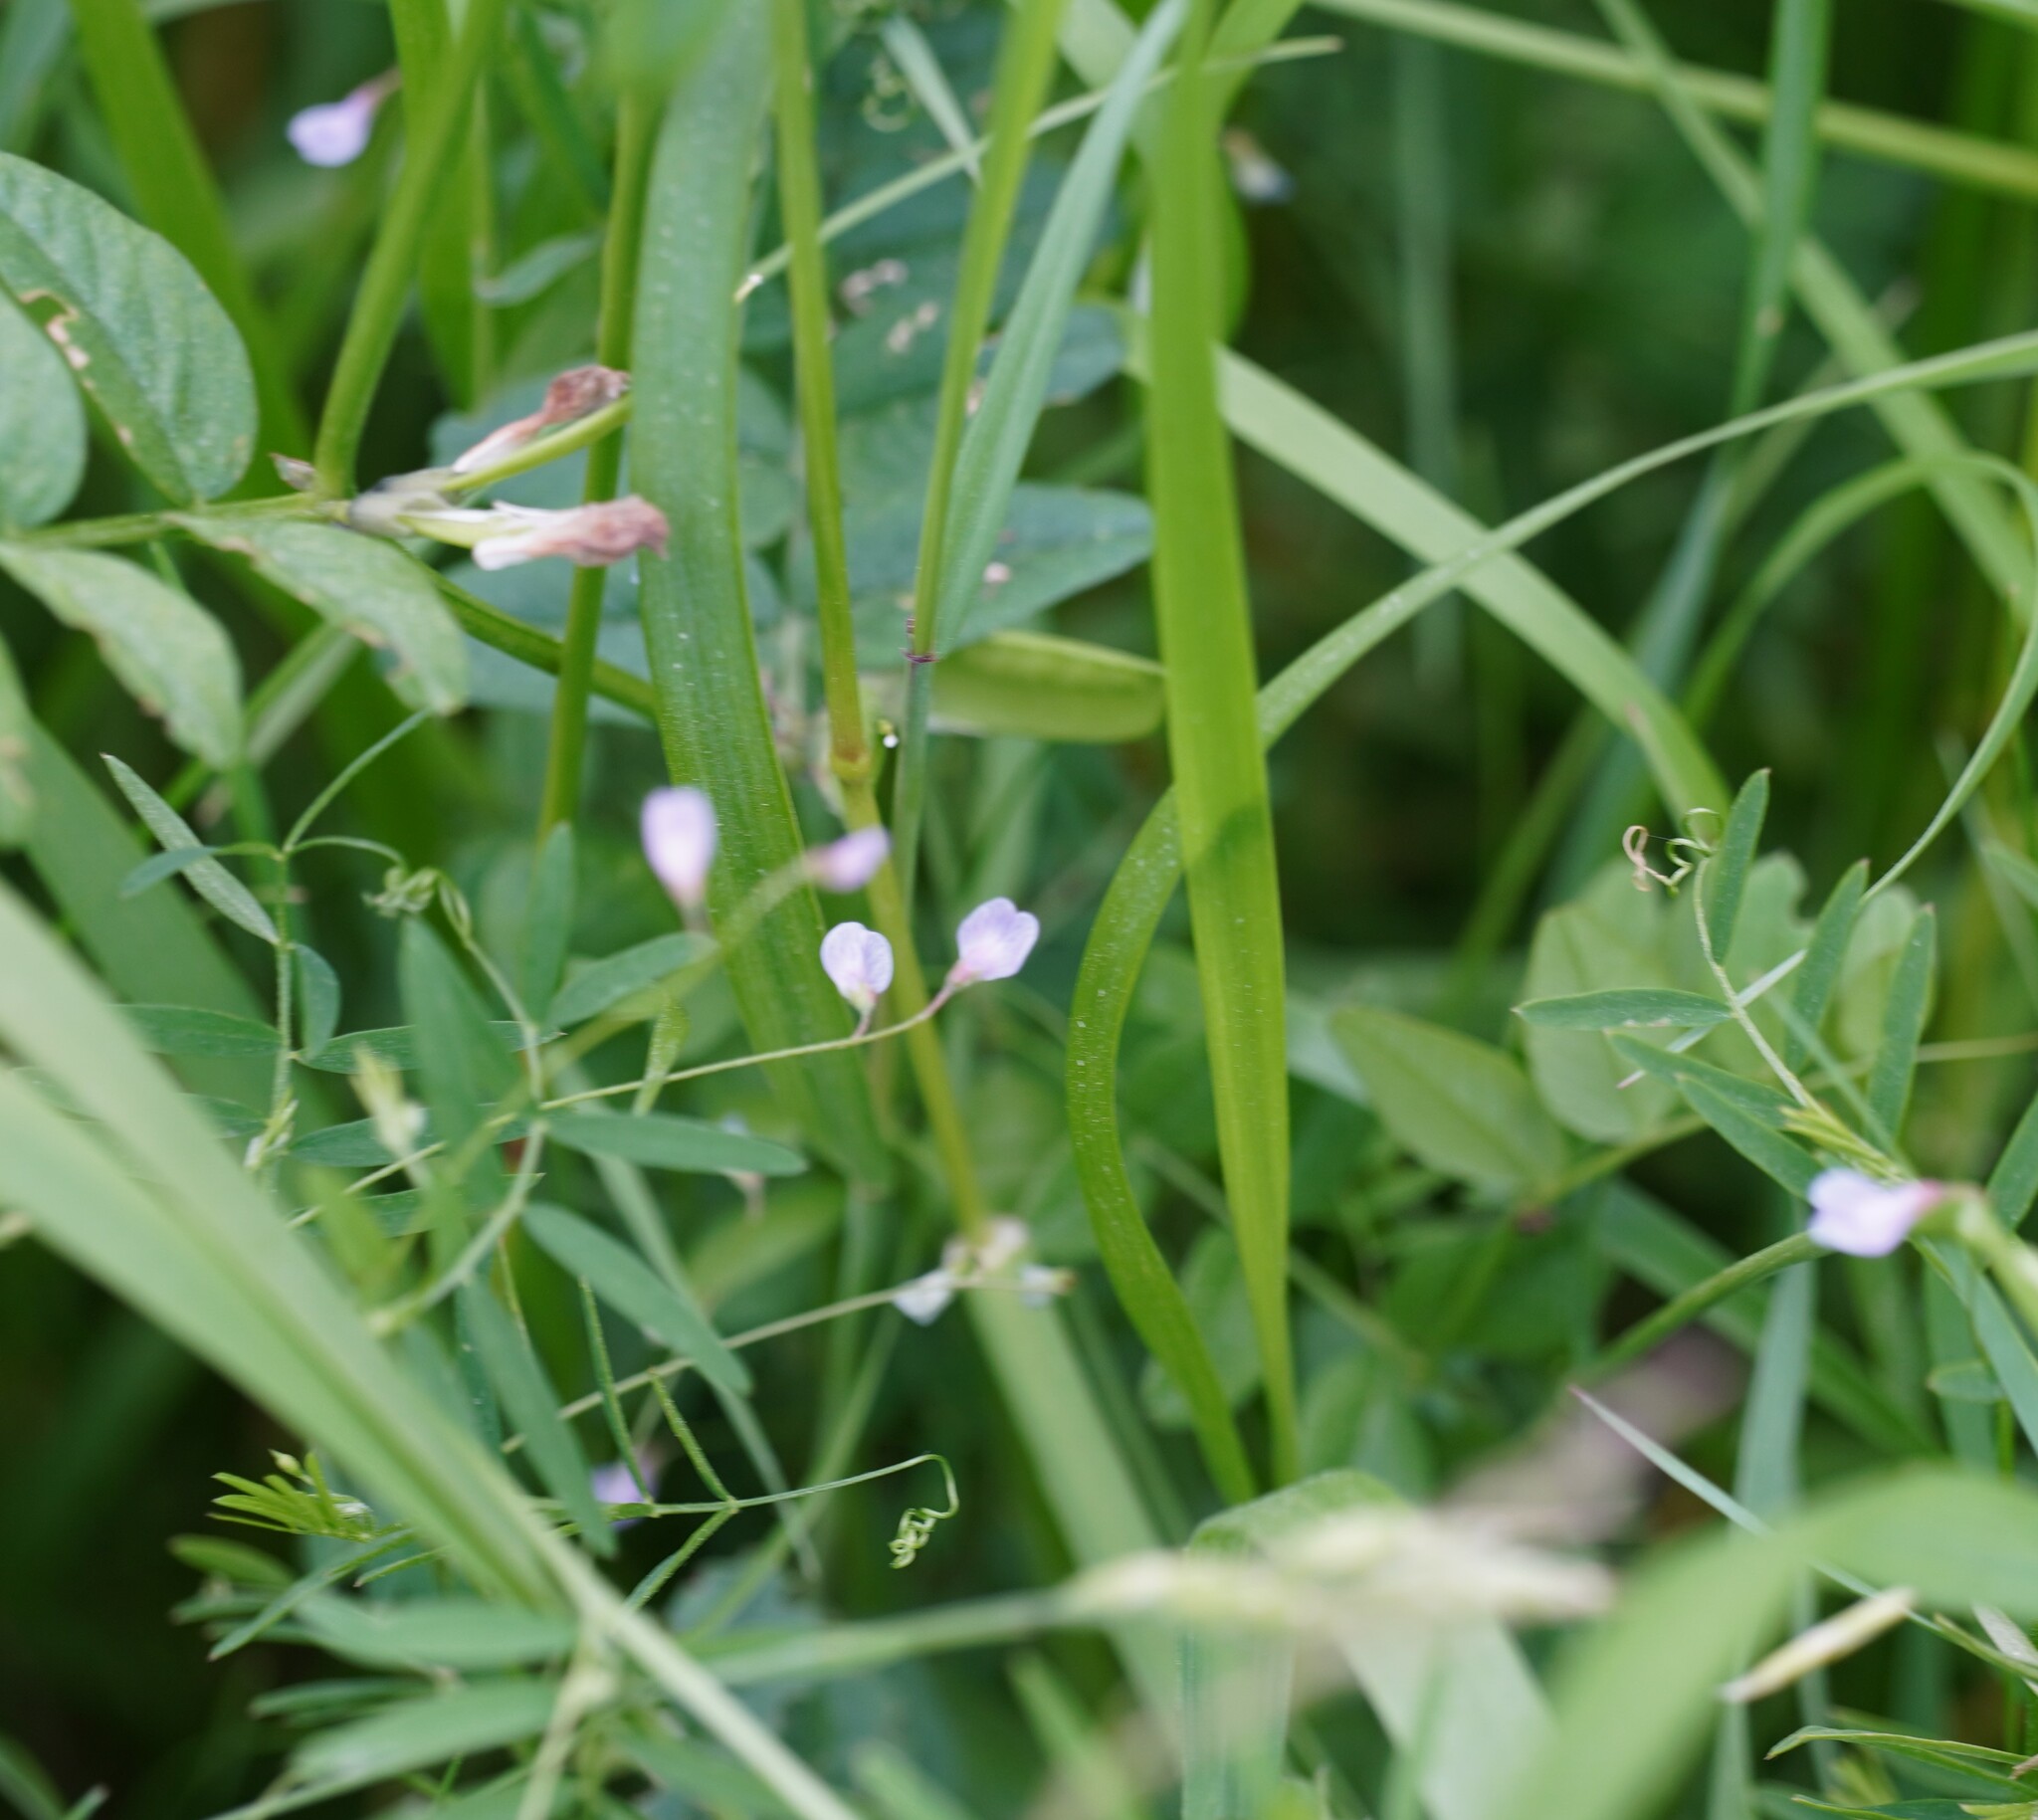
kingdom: Plantae
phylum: Tracheophyta
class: Magnoliopsida
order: Fabales
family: Fabaceae
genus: Vicia
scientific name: Vicia tetrasperma
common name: Smooth tare
